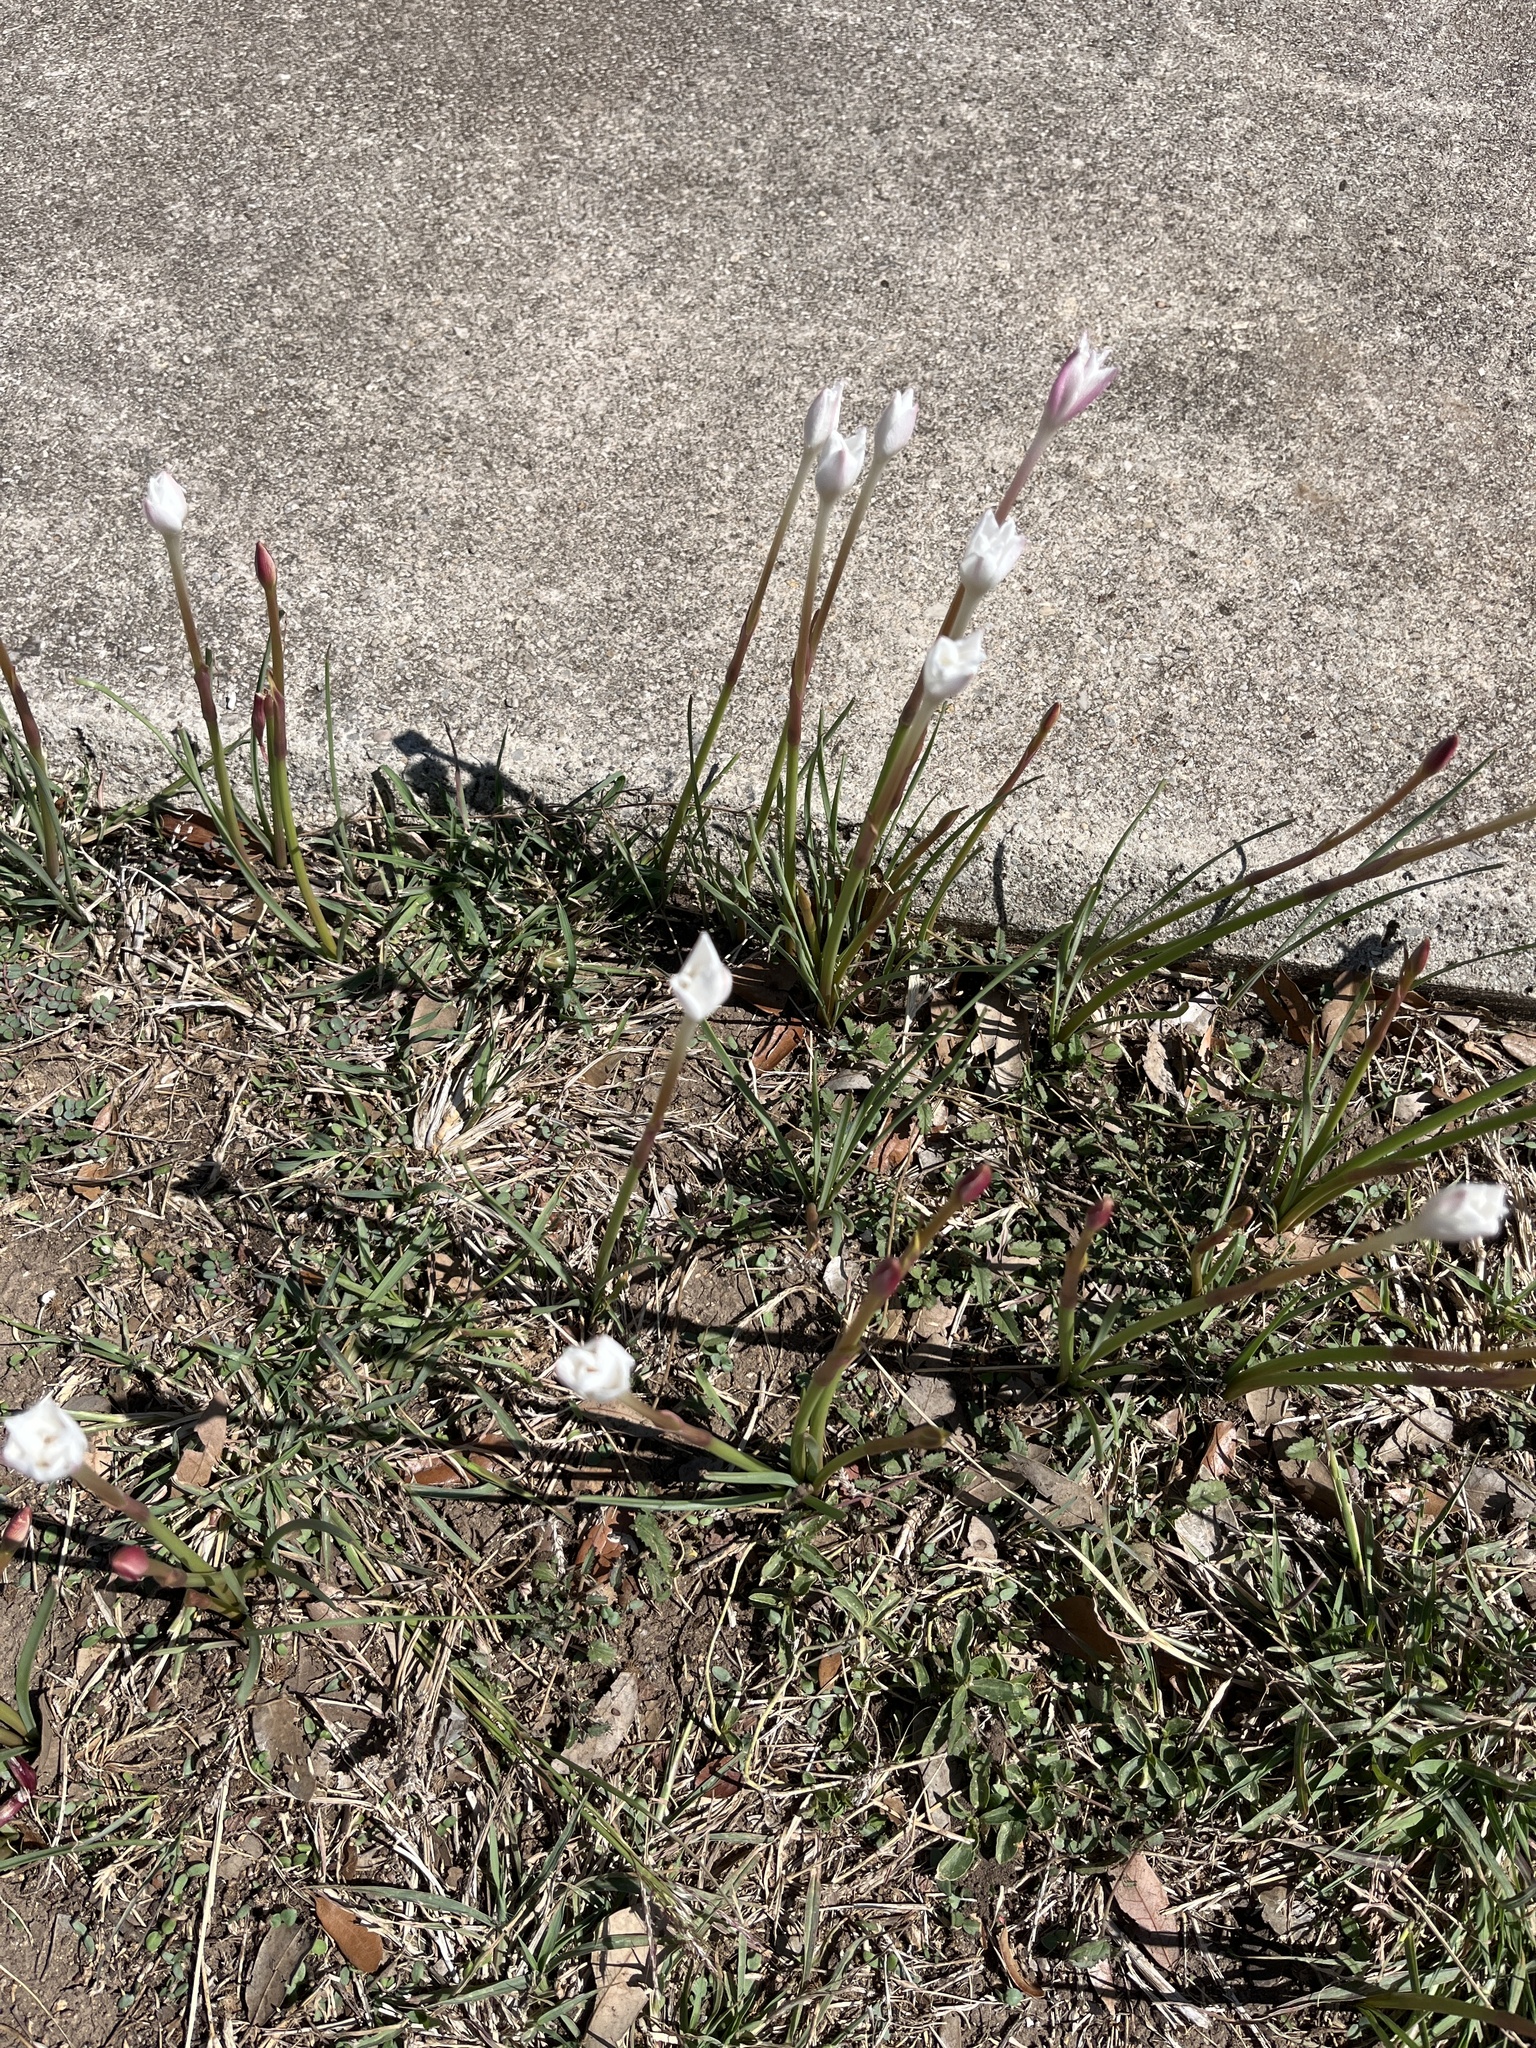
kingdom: Plantae
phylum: Tracheophyta
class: Liliopsida
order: Asparagales
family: Amaryllidaceae
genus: Zephyranthes
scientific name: Zephyranthes chlorosolen
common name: Evening rain-lily
